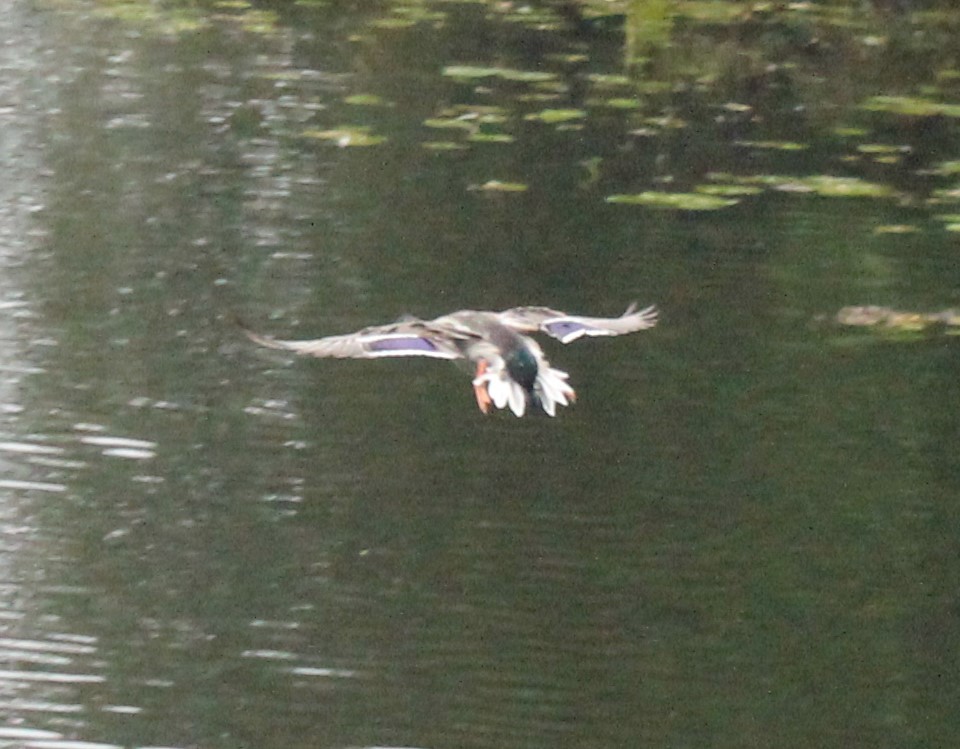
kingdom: Animalia
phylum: Chordata
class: Aves
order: Anseriformes
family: Anatidae
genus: Anas
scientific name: Anas platyrhynchos
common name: Mallard
